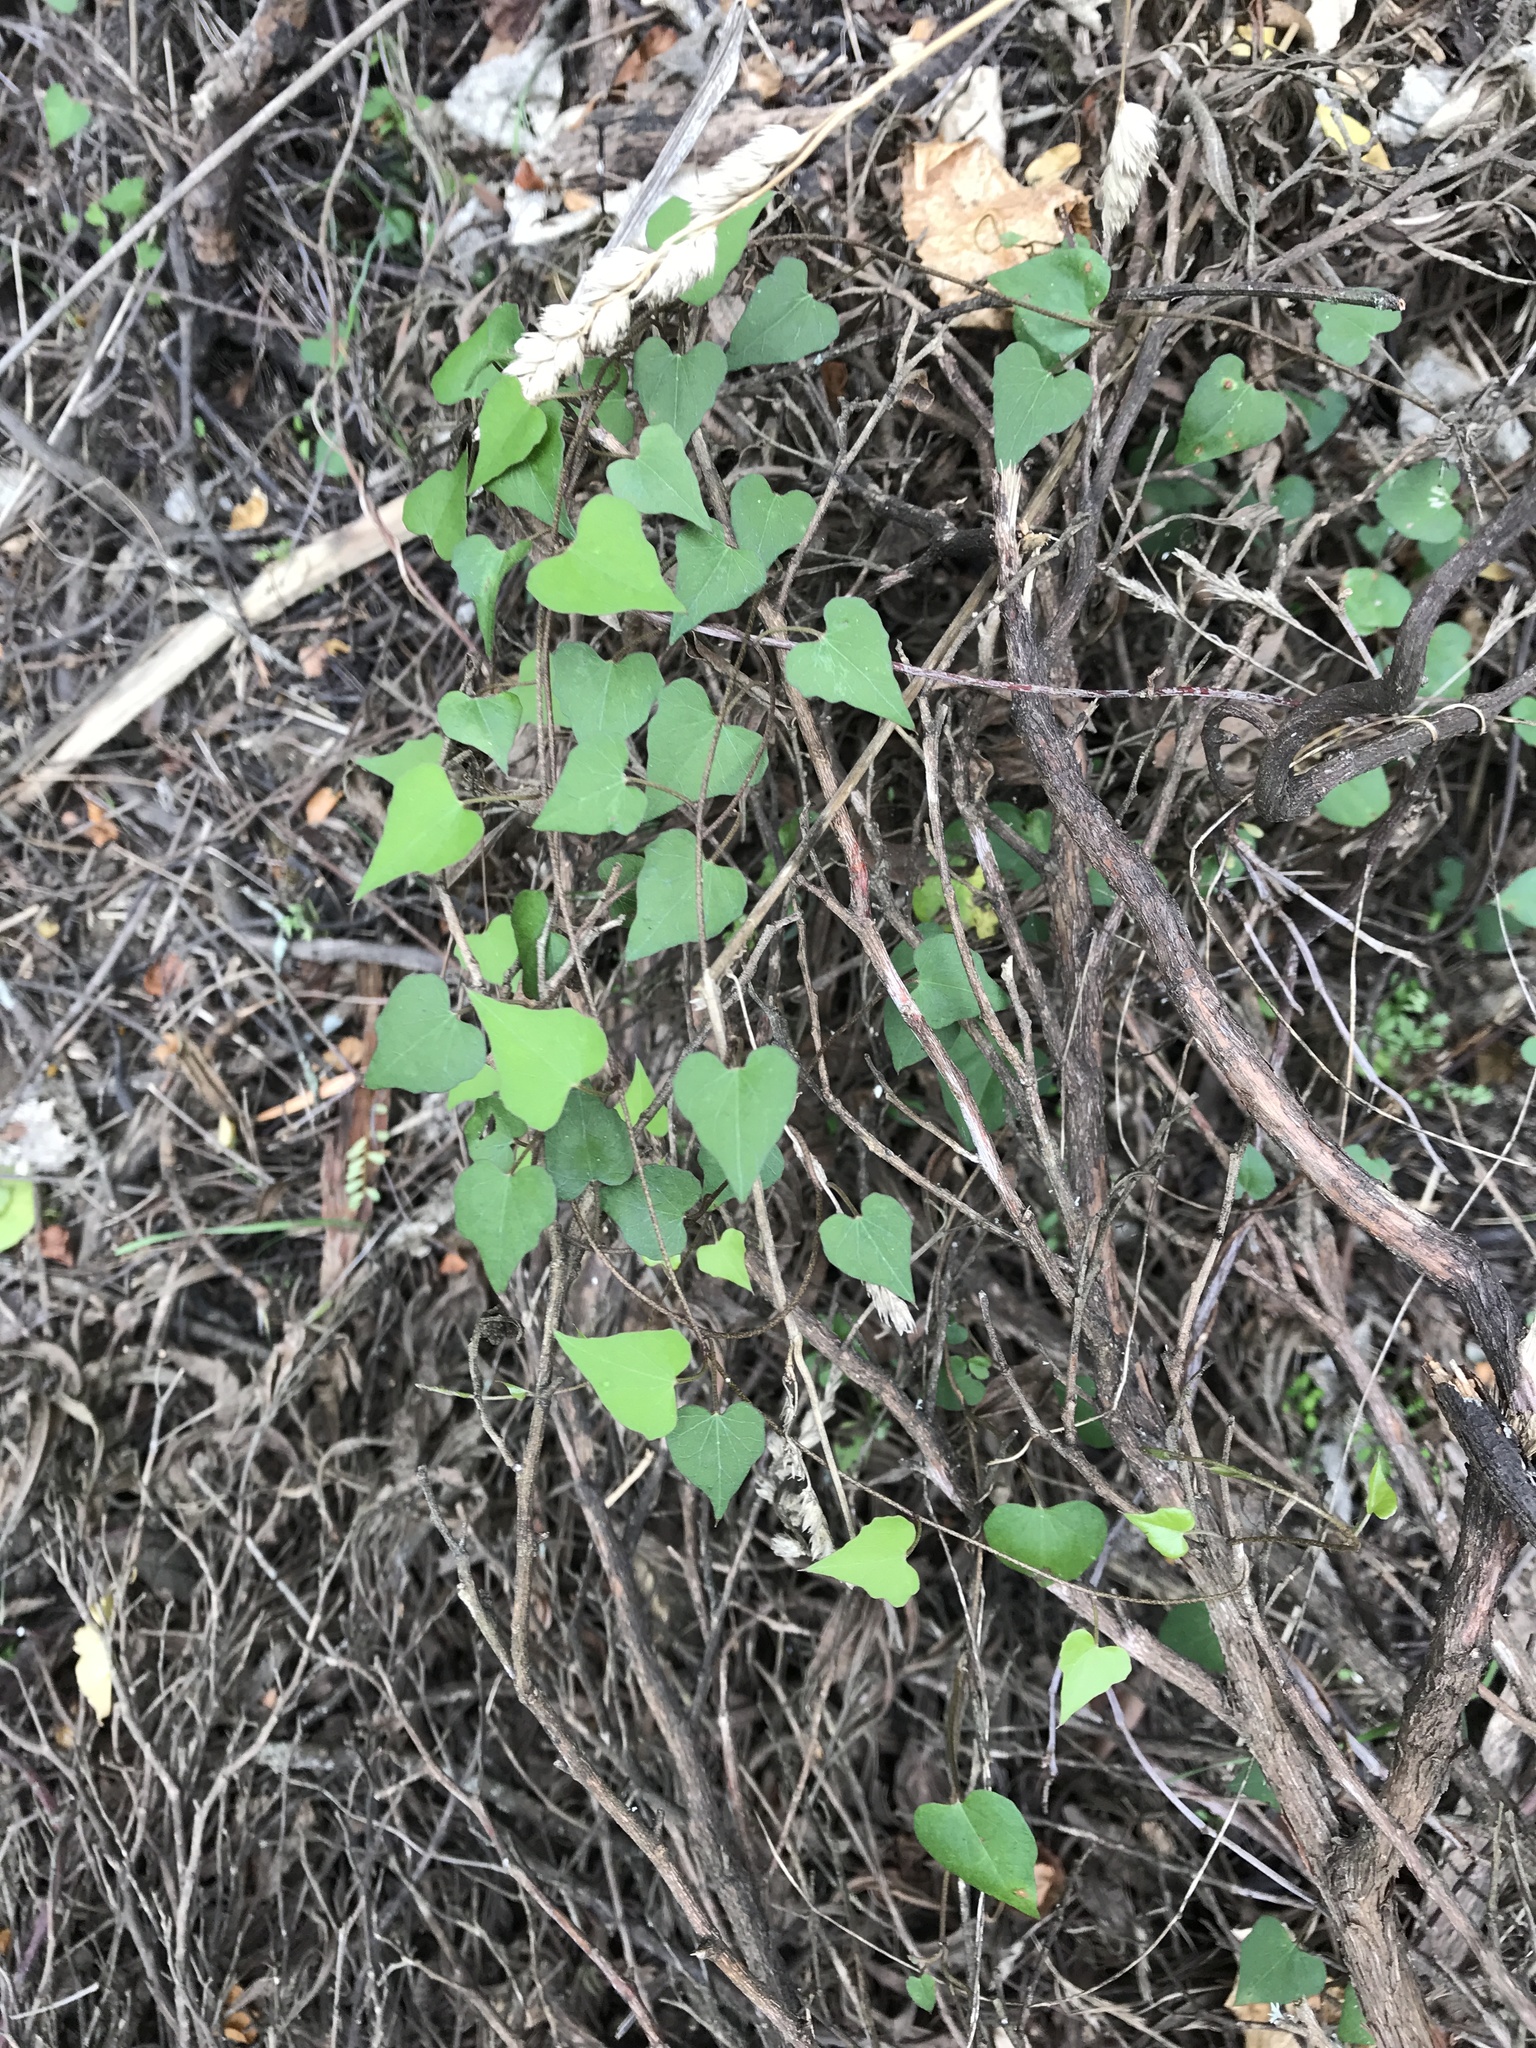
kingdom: Plantae
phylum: Tracheophyta
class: Magnoliopsida
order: Solanales
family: Convolvulaceae
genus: Calystegia
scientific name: Calystegia tuguriorum
